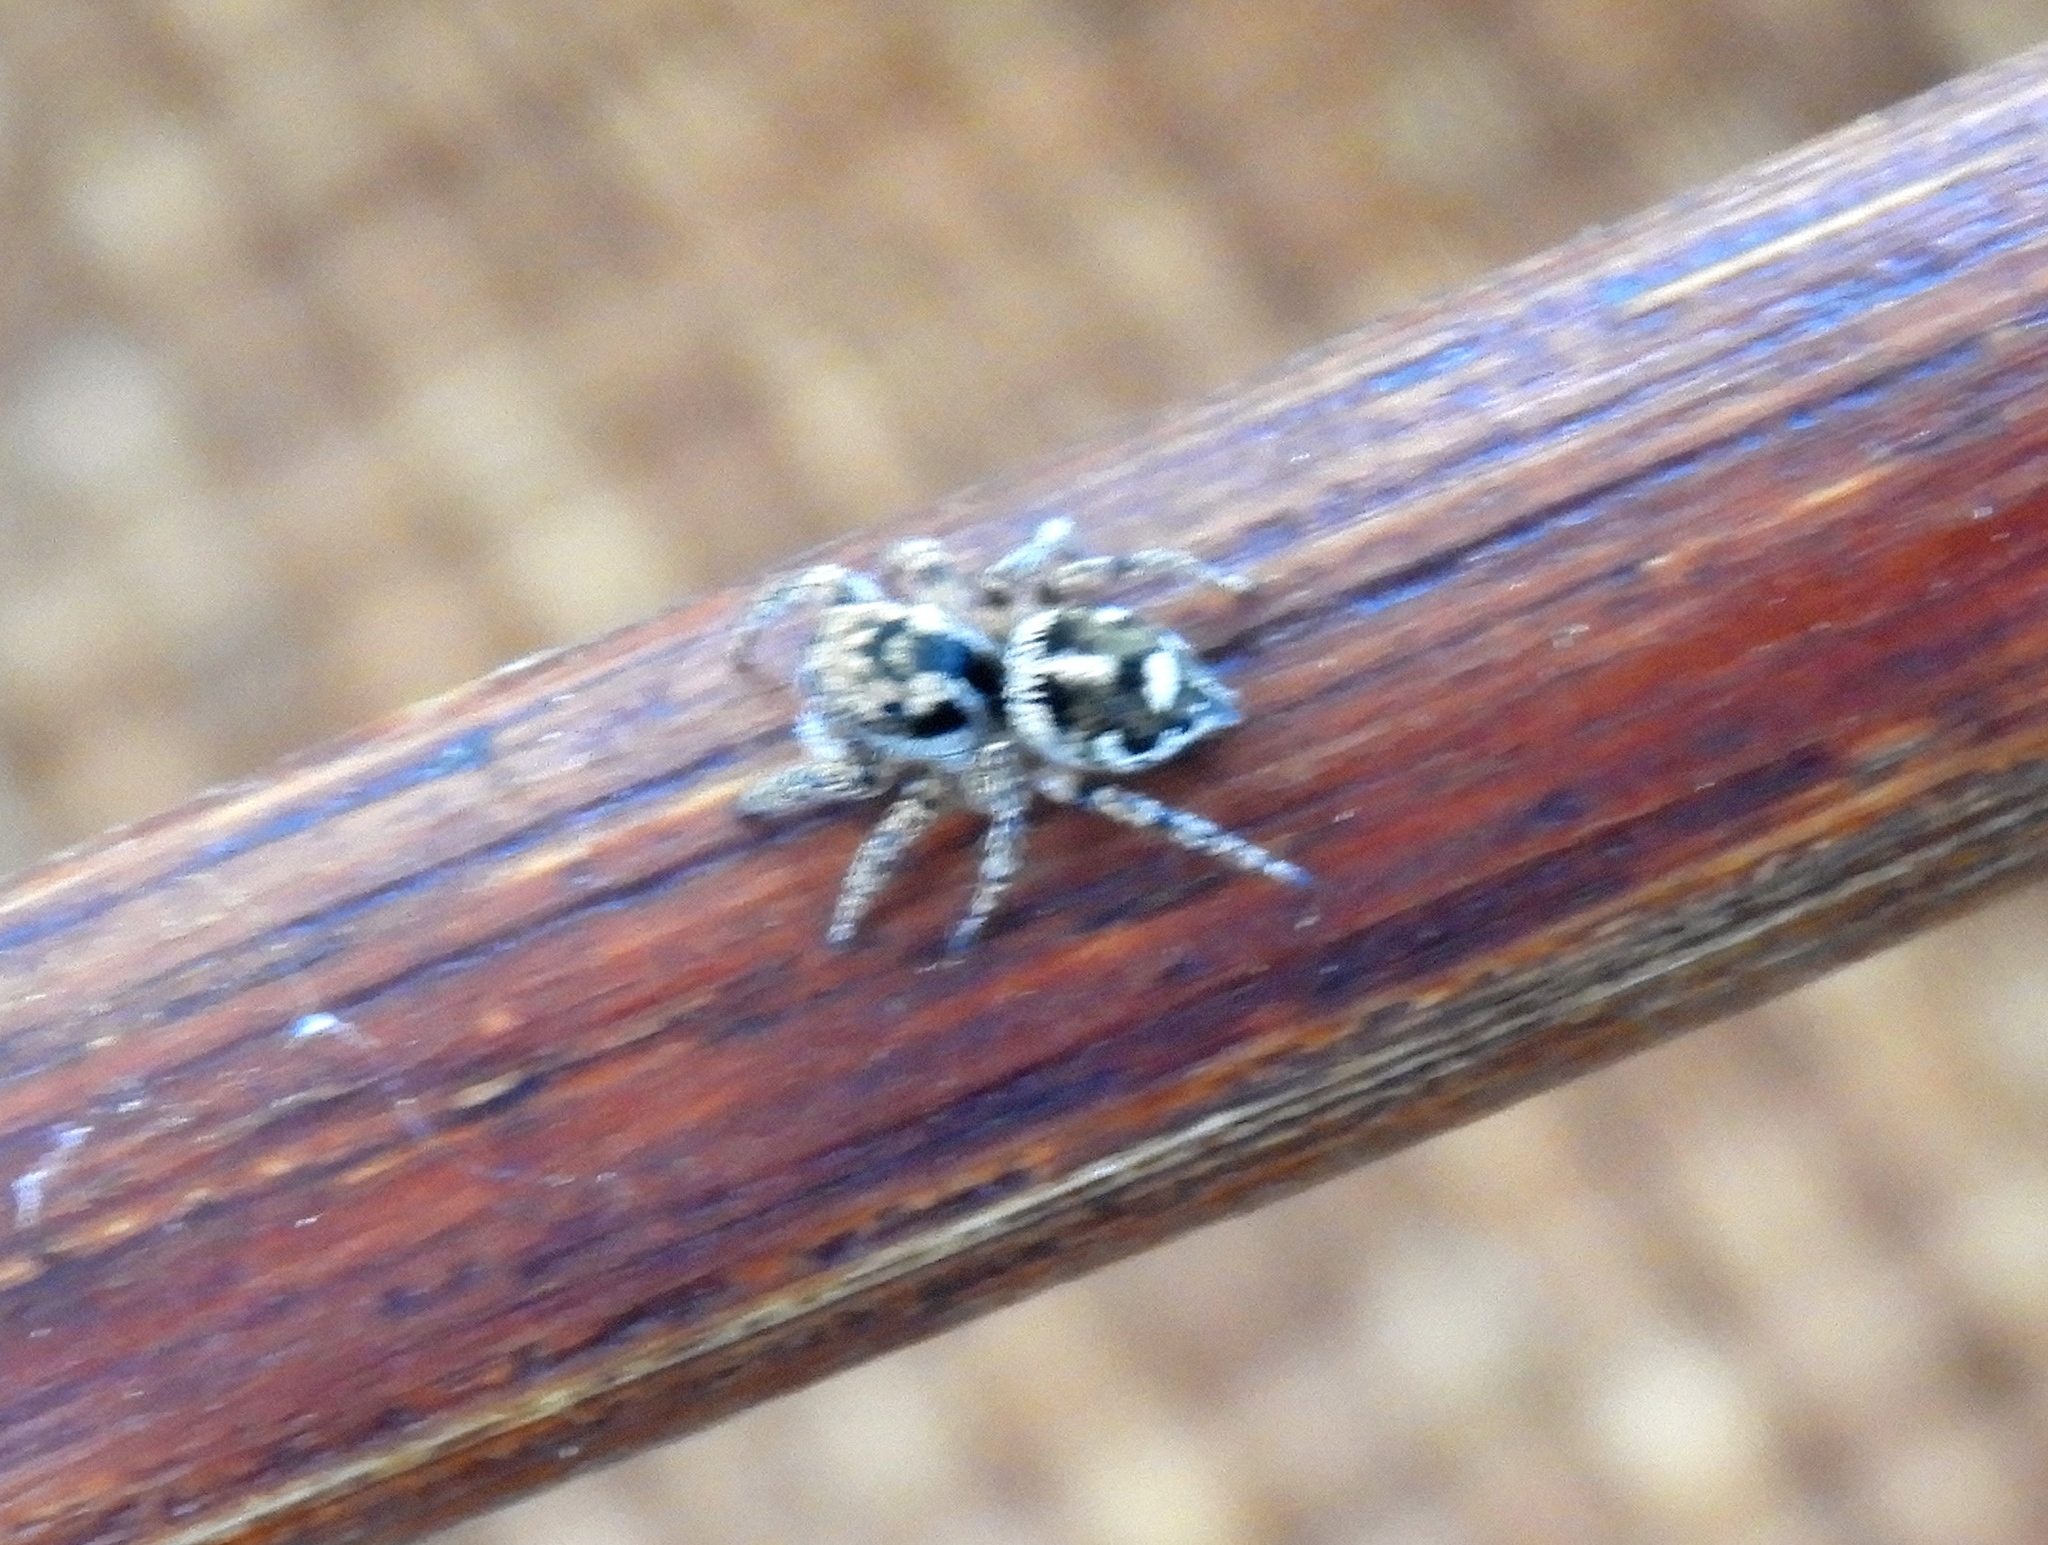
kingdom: Animalia
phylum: Arthropoda
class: Arachnida
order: Araneae
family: Salticidae
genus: Habronattus
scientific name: Habronattus
